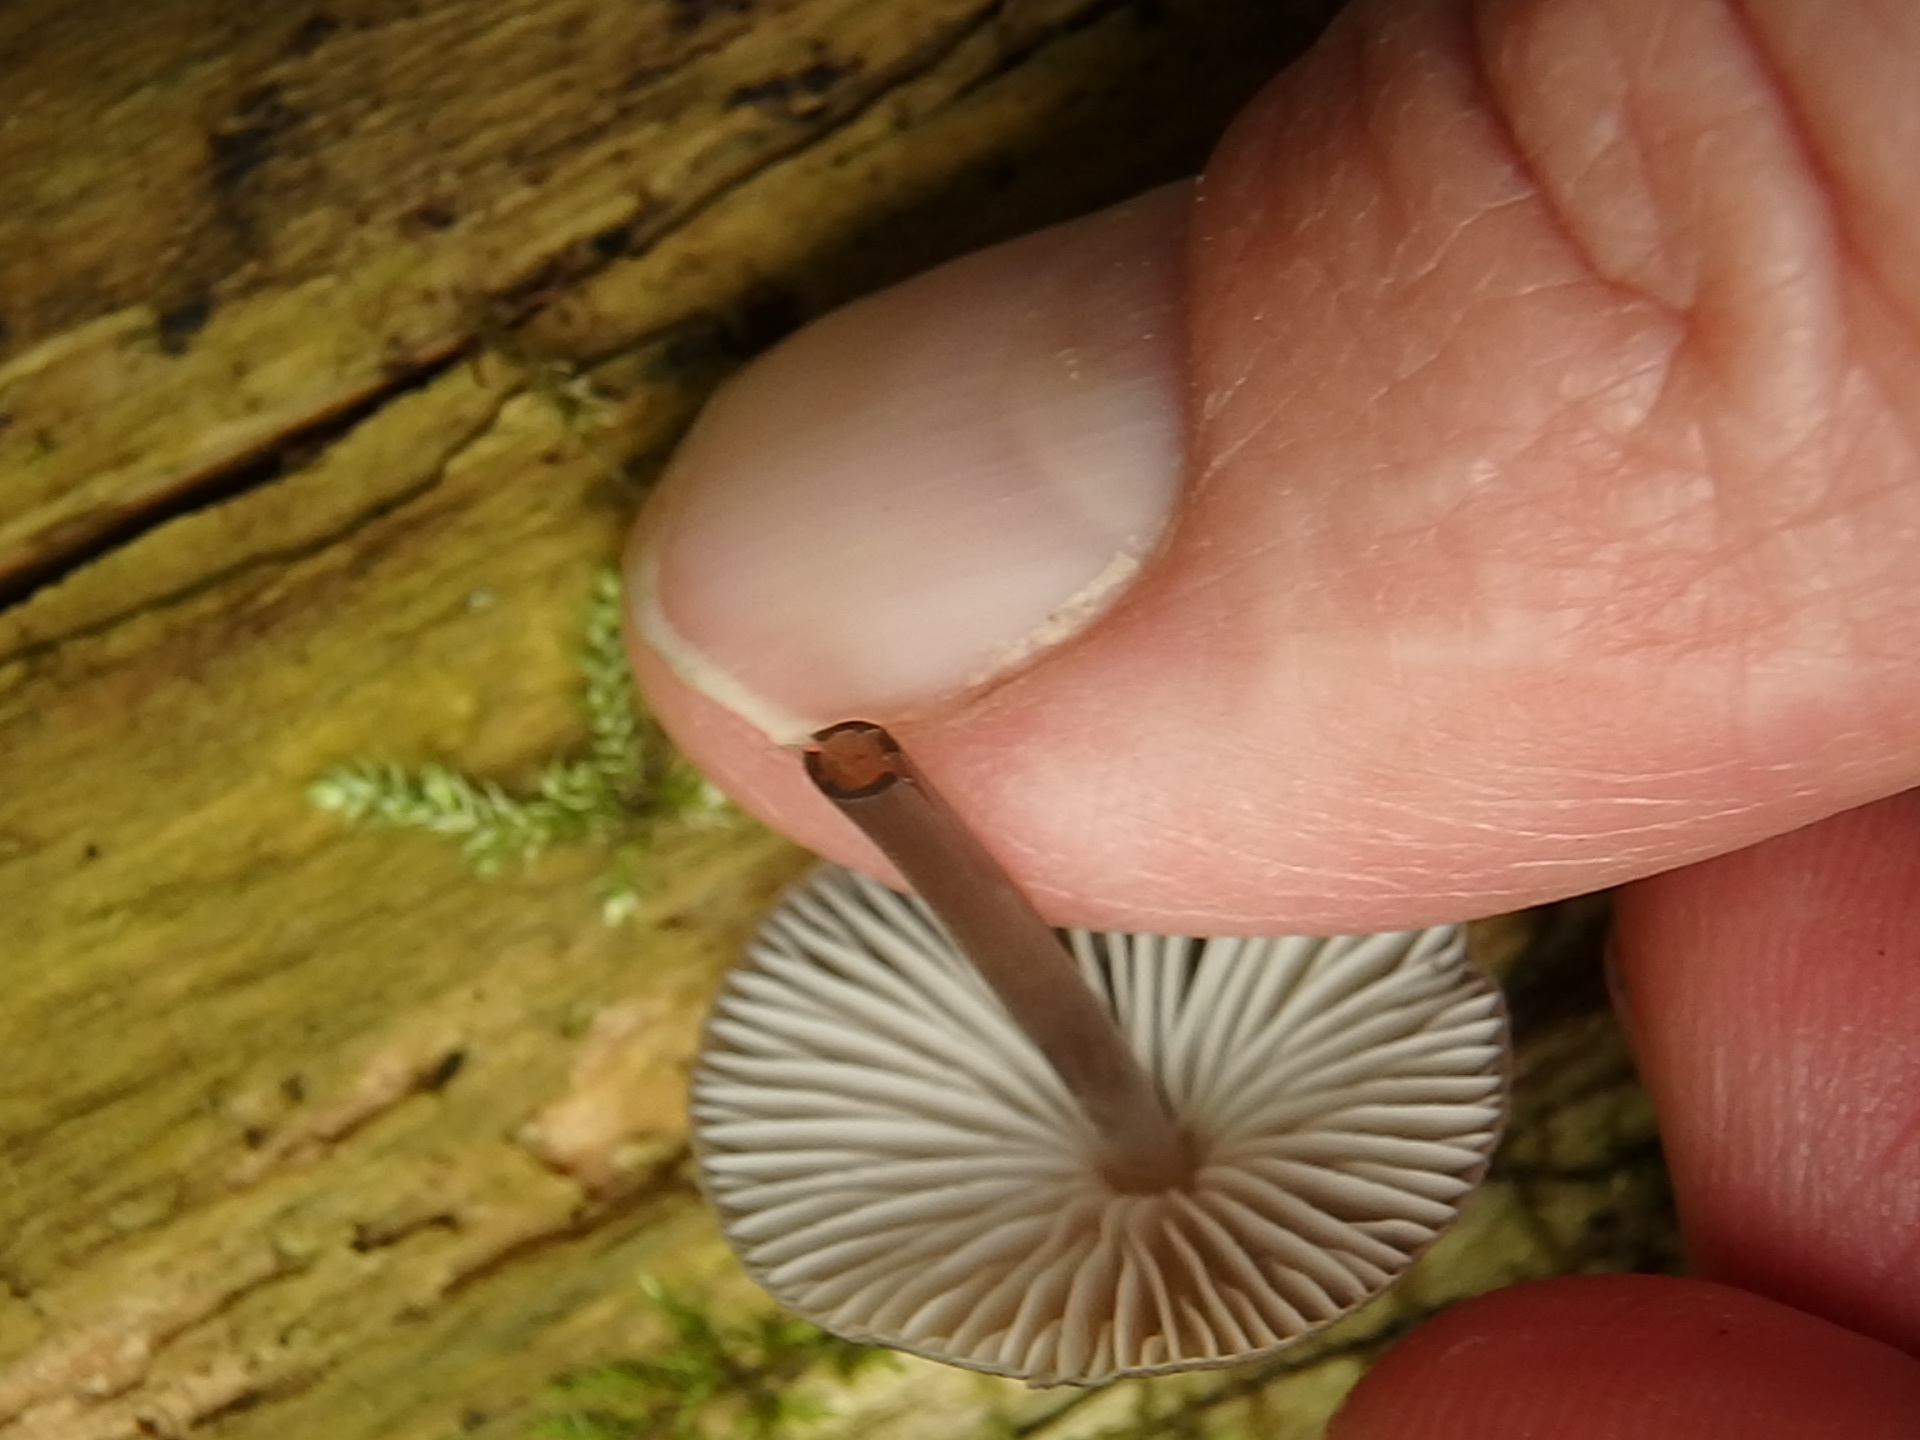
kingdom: Fungi
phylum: Basidiomycota
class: Agaricomycetes
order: Agaricales
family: Mycenaceae
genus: Mycena
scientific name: Mycena haematopus
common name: Burgundydrop bonnet
